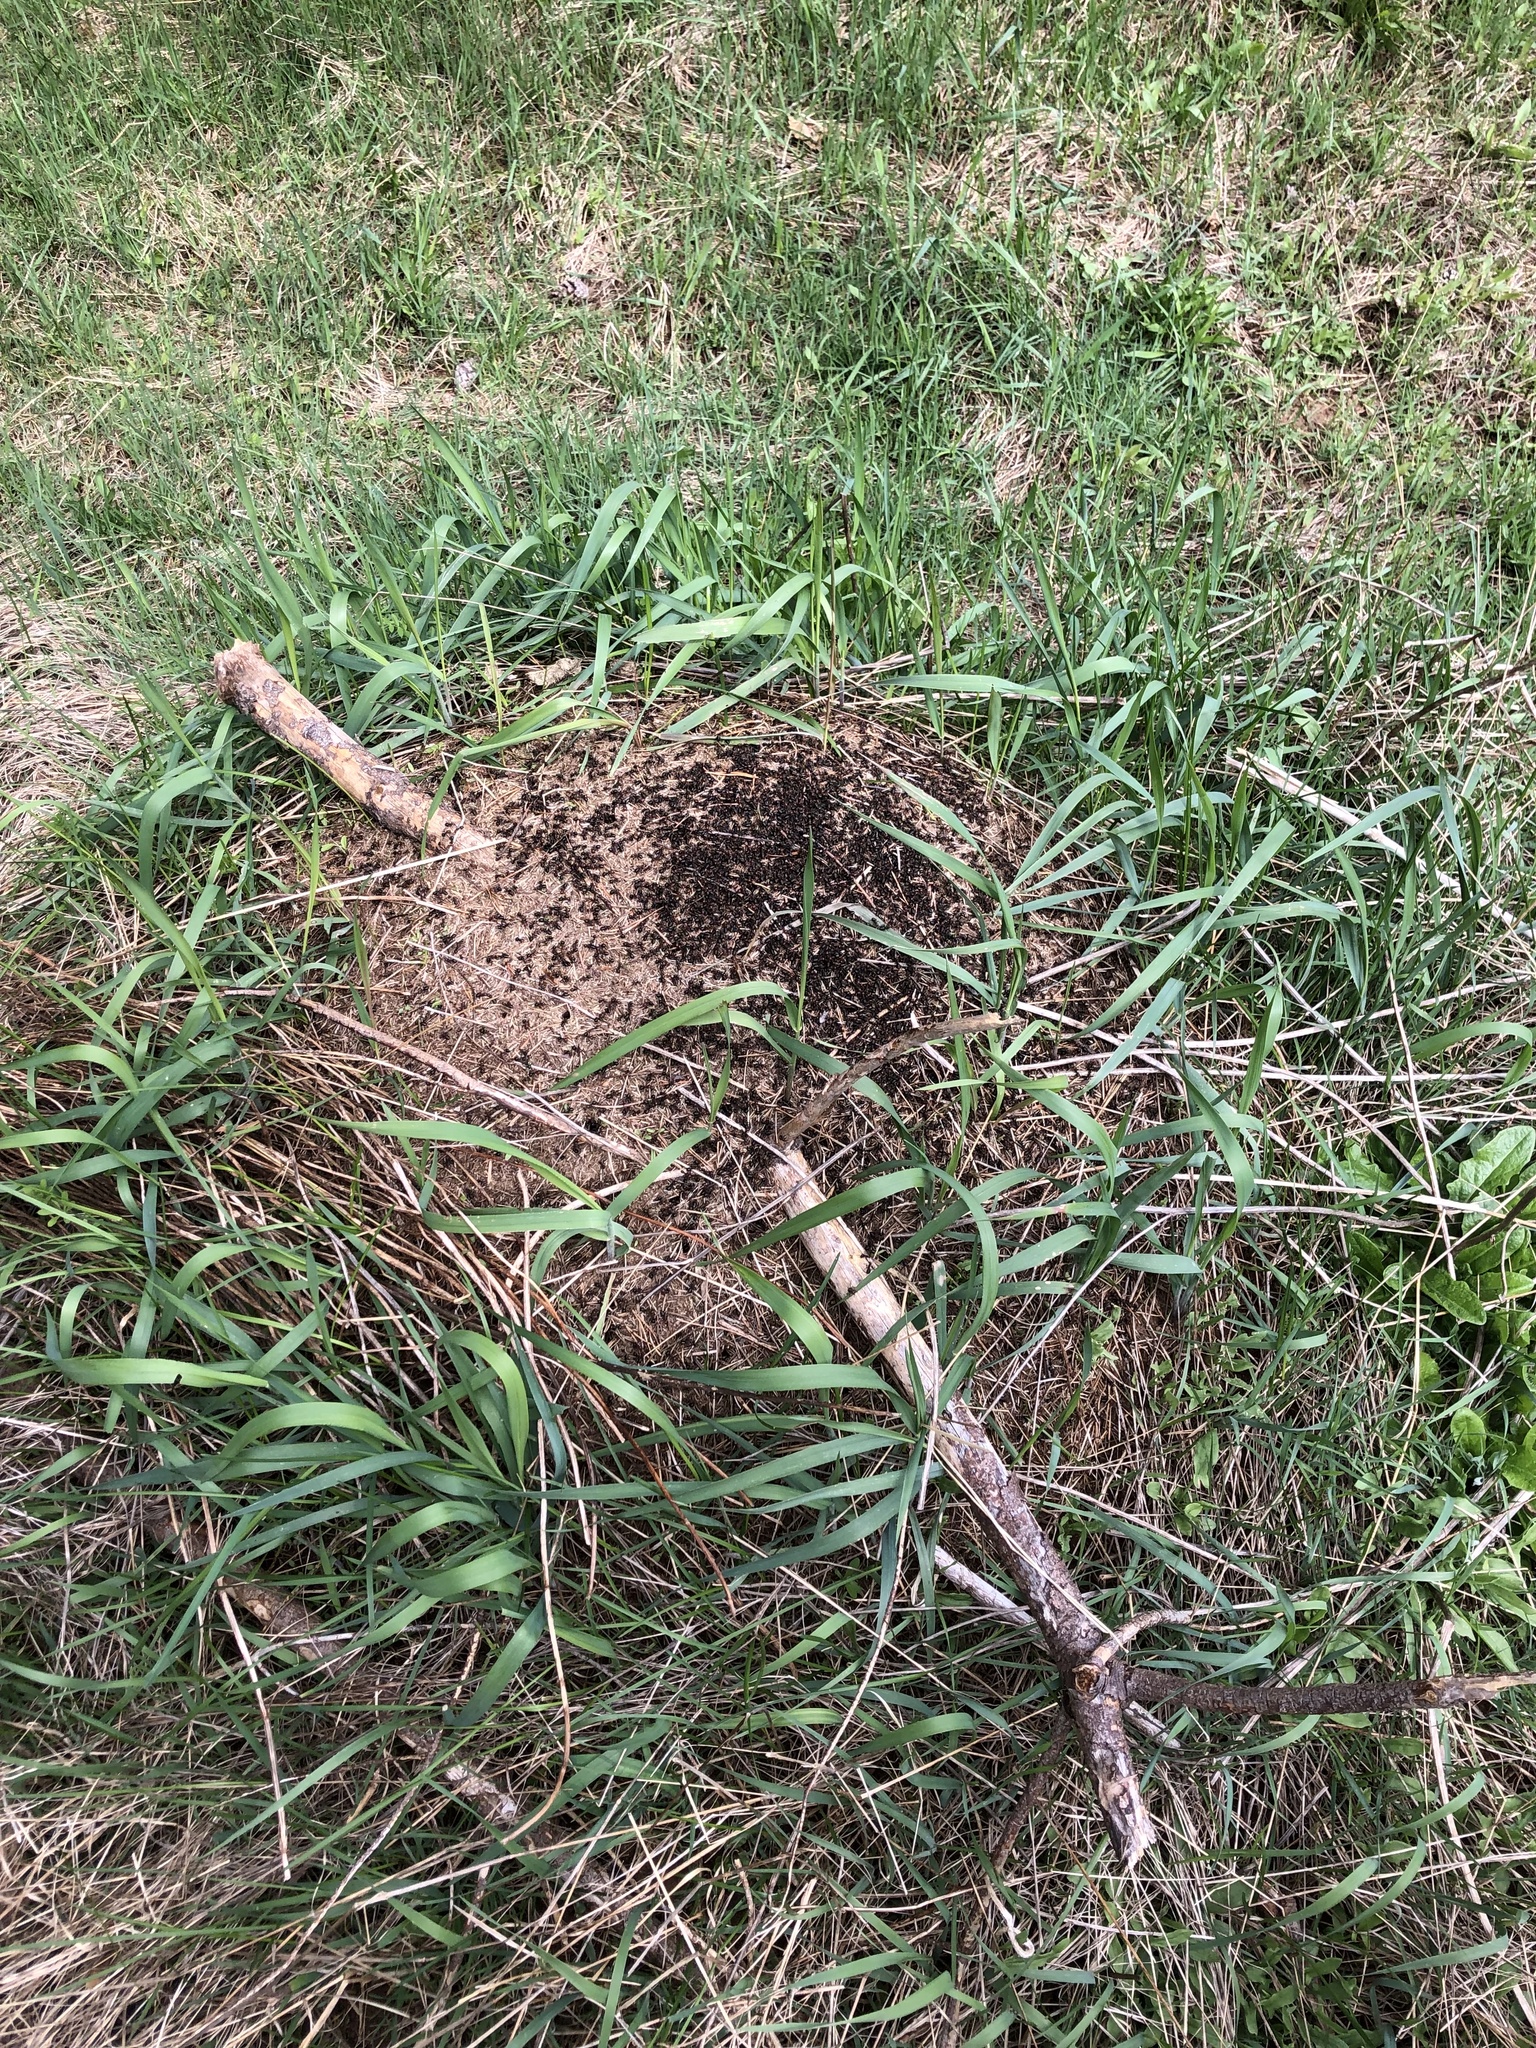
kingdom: Animalia
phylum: Arthropoda
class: Insecta
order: Hymenoptera
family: Formicidae
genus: Formica
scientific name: Formica obscuripes
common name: Western thatching ant
